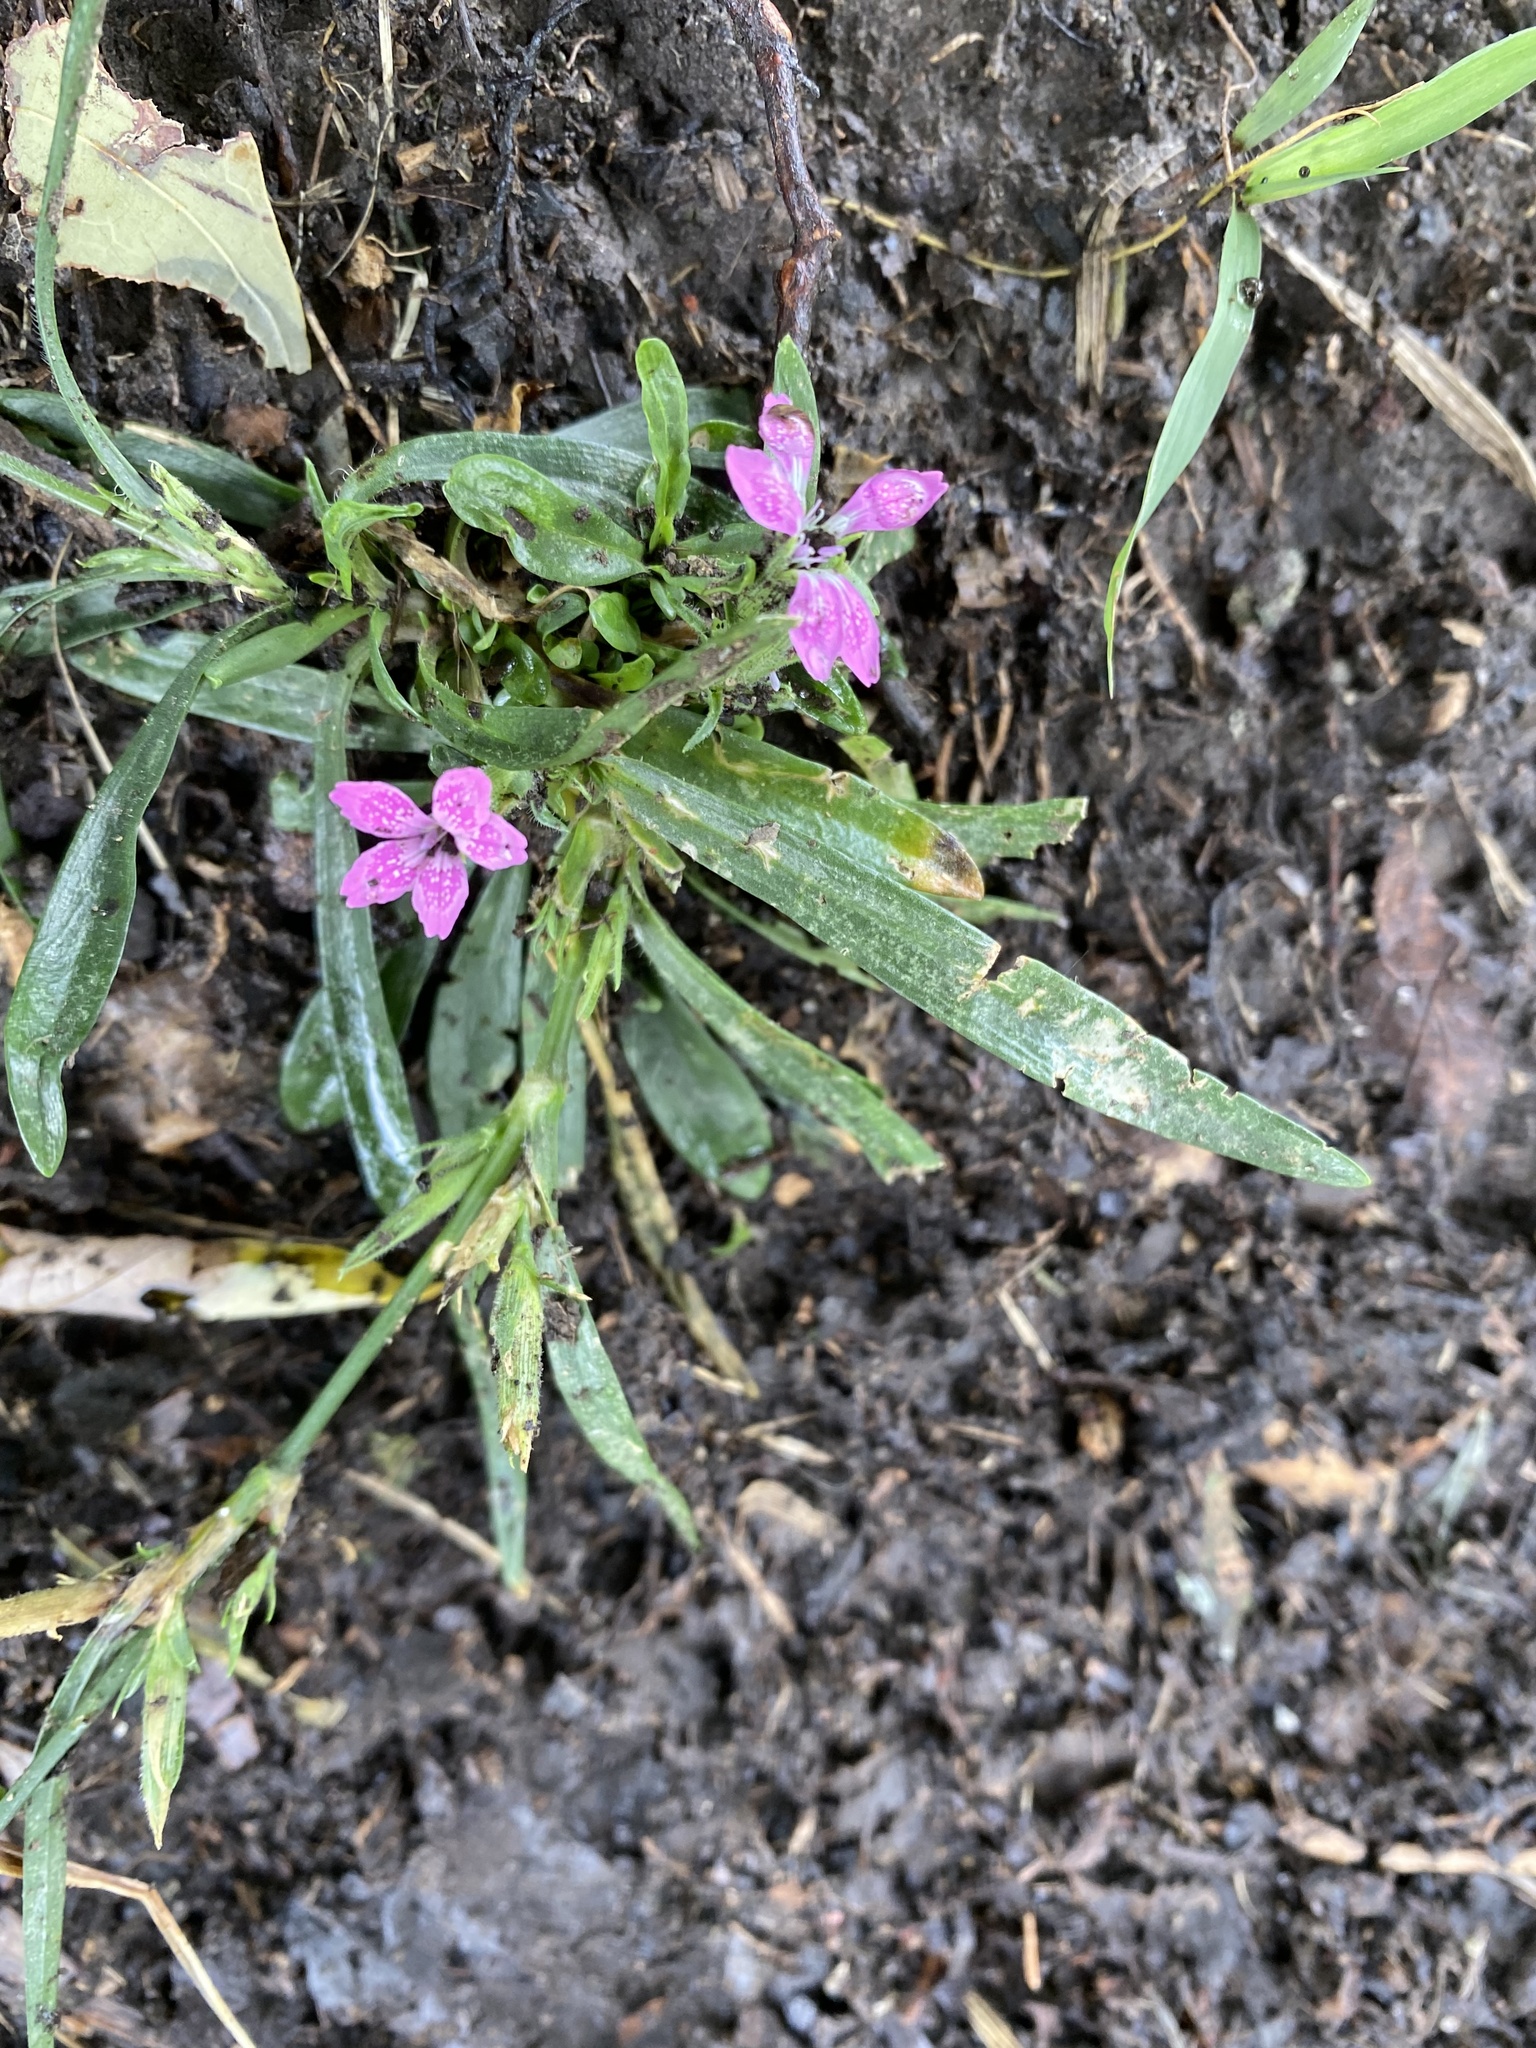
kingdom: Plantae
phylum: Tracheophyta
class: Magnoliopsida
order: Caryophyllales
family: Caryophyllaceae
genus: Dianthus
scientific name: Dianthus armeria
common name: Deptford pink
